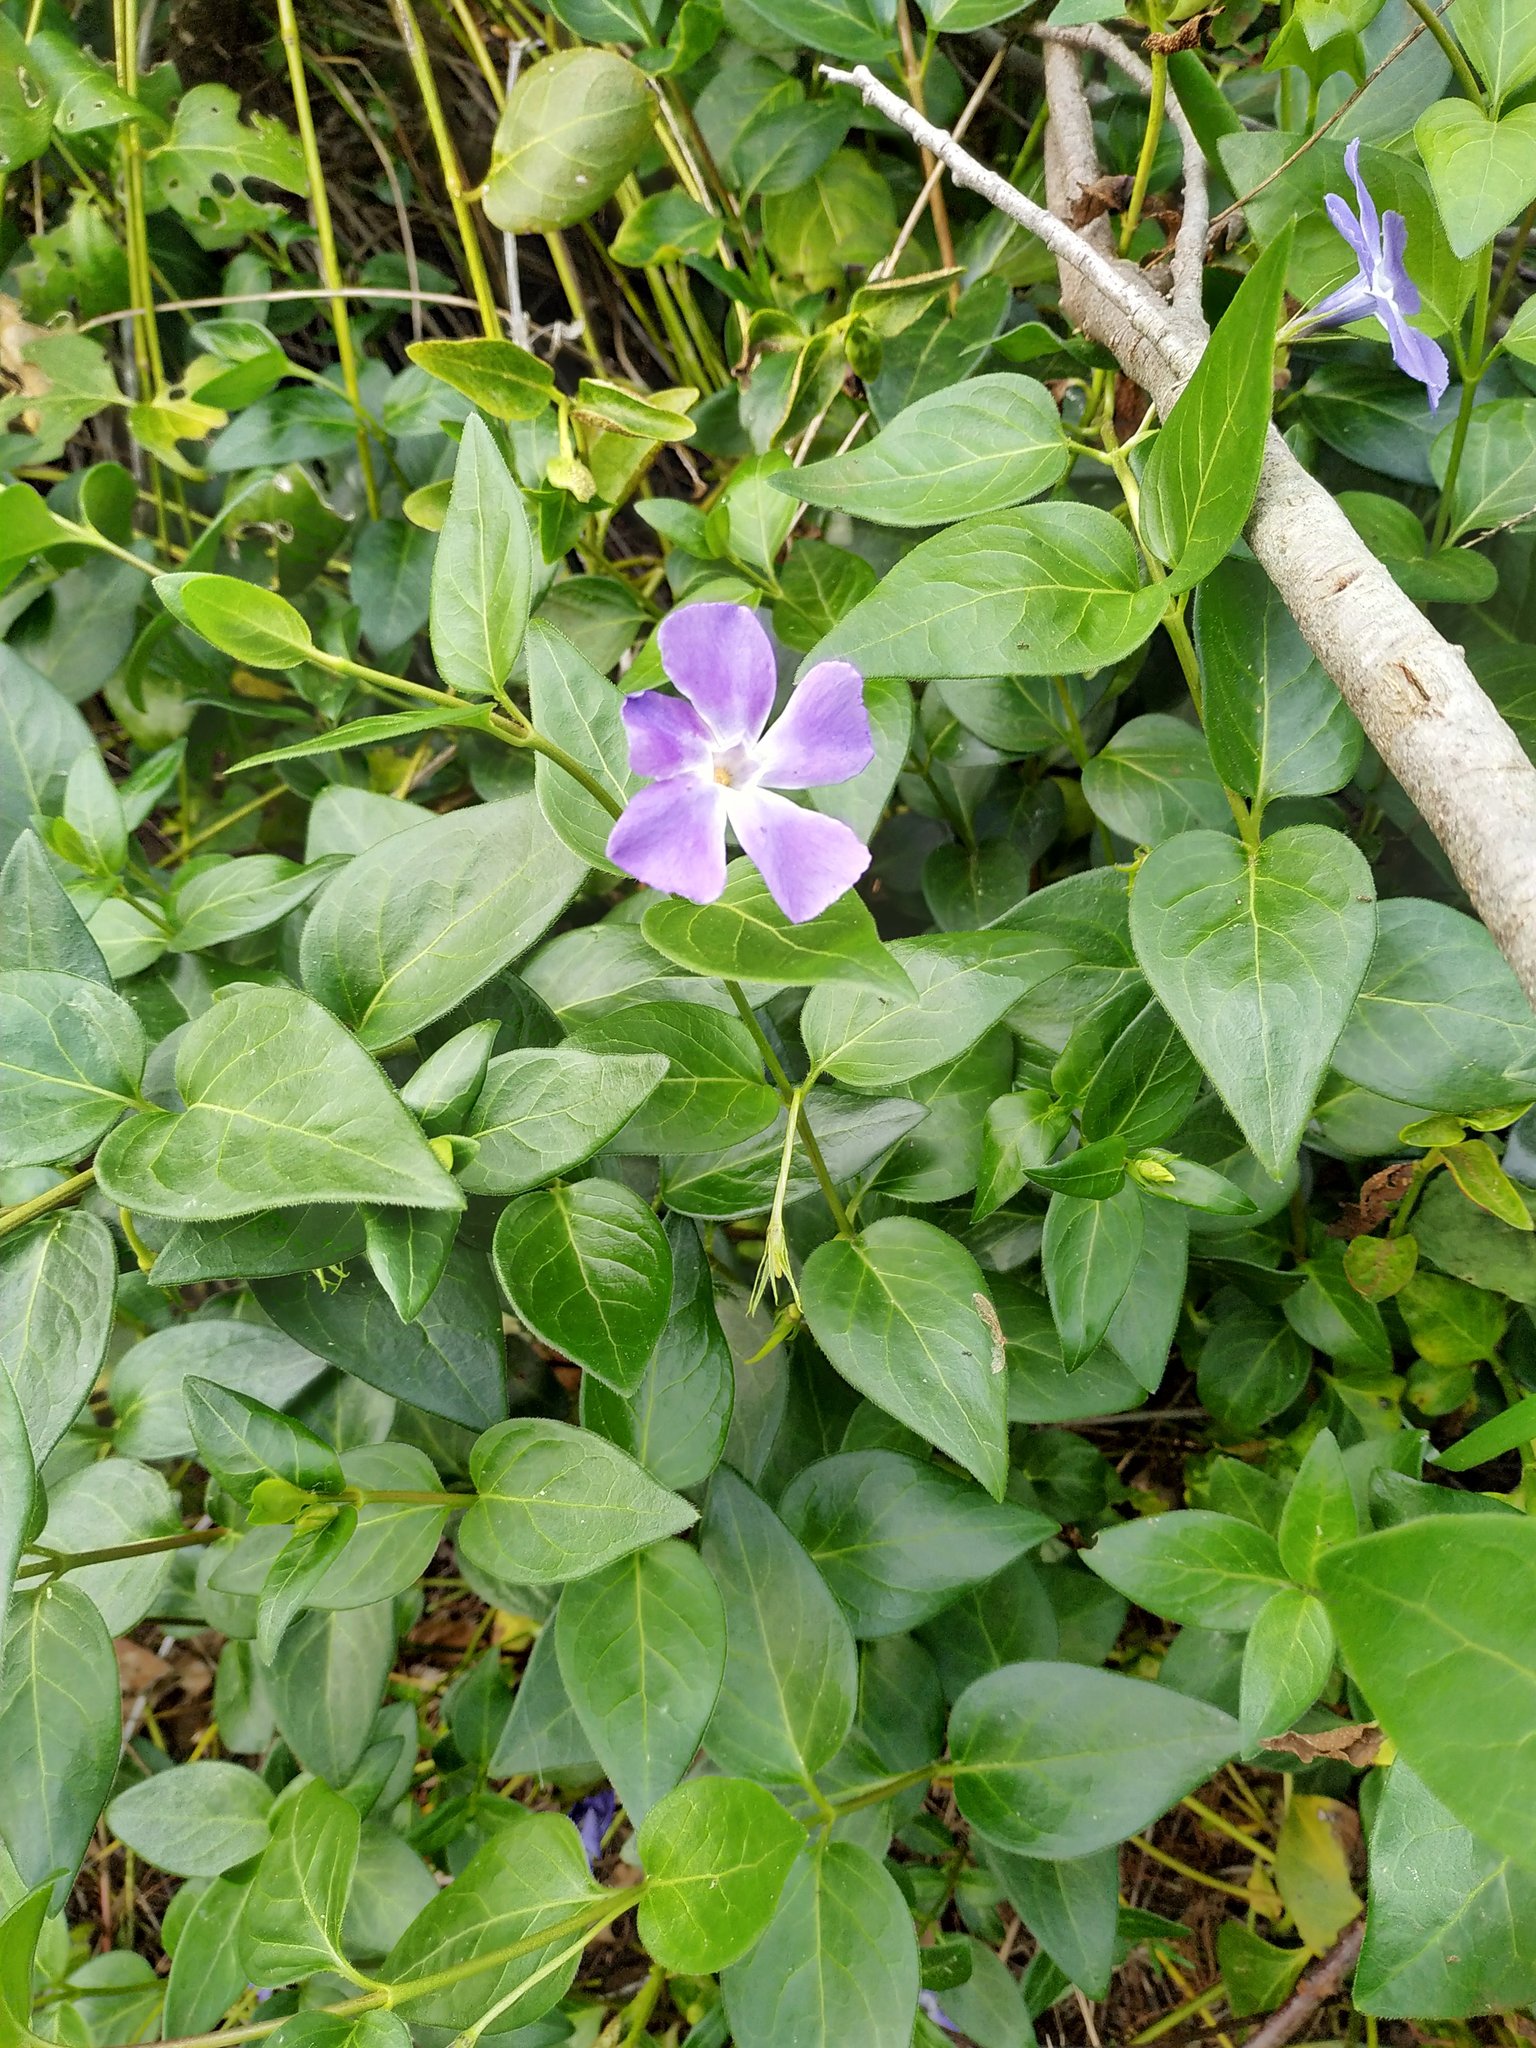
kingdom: Plantae
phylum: Tracheophyta
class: Magnoliopsida
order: Gentianales
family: Apocynaceae
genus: Vinca
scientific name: Vinca major
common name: Greater periwinkle
